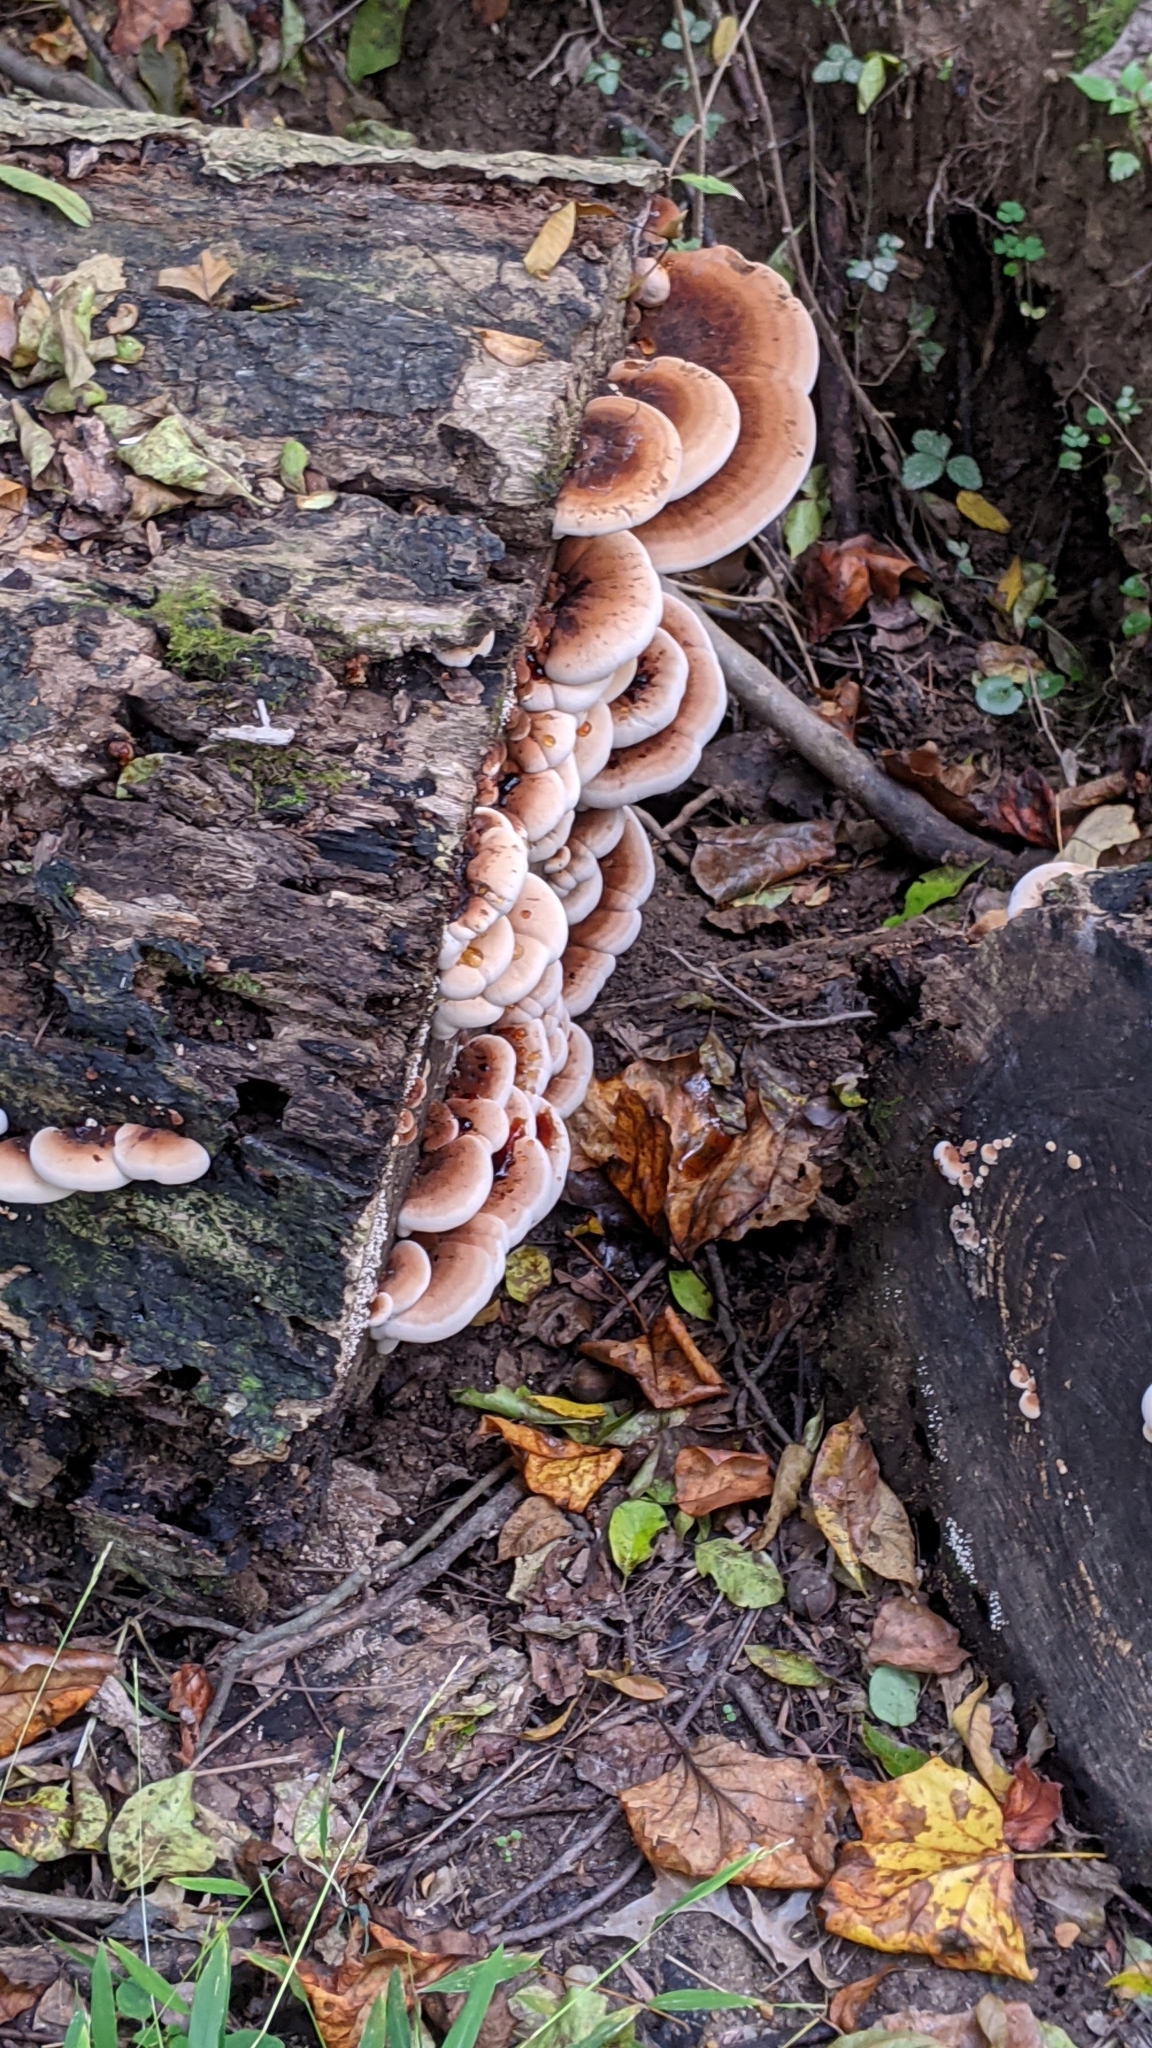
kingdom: Fungi
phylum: Basidiomycota
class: Agaricomycetes
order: Polyporales
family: Ischnodermataceae
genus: Ischnoderma
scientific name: Ischnoderma resinosum
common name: Resinous polypore
